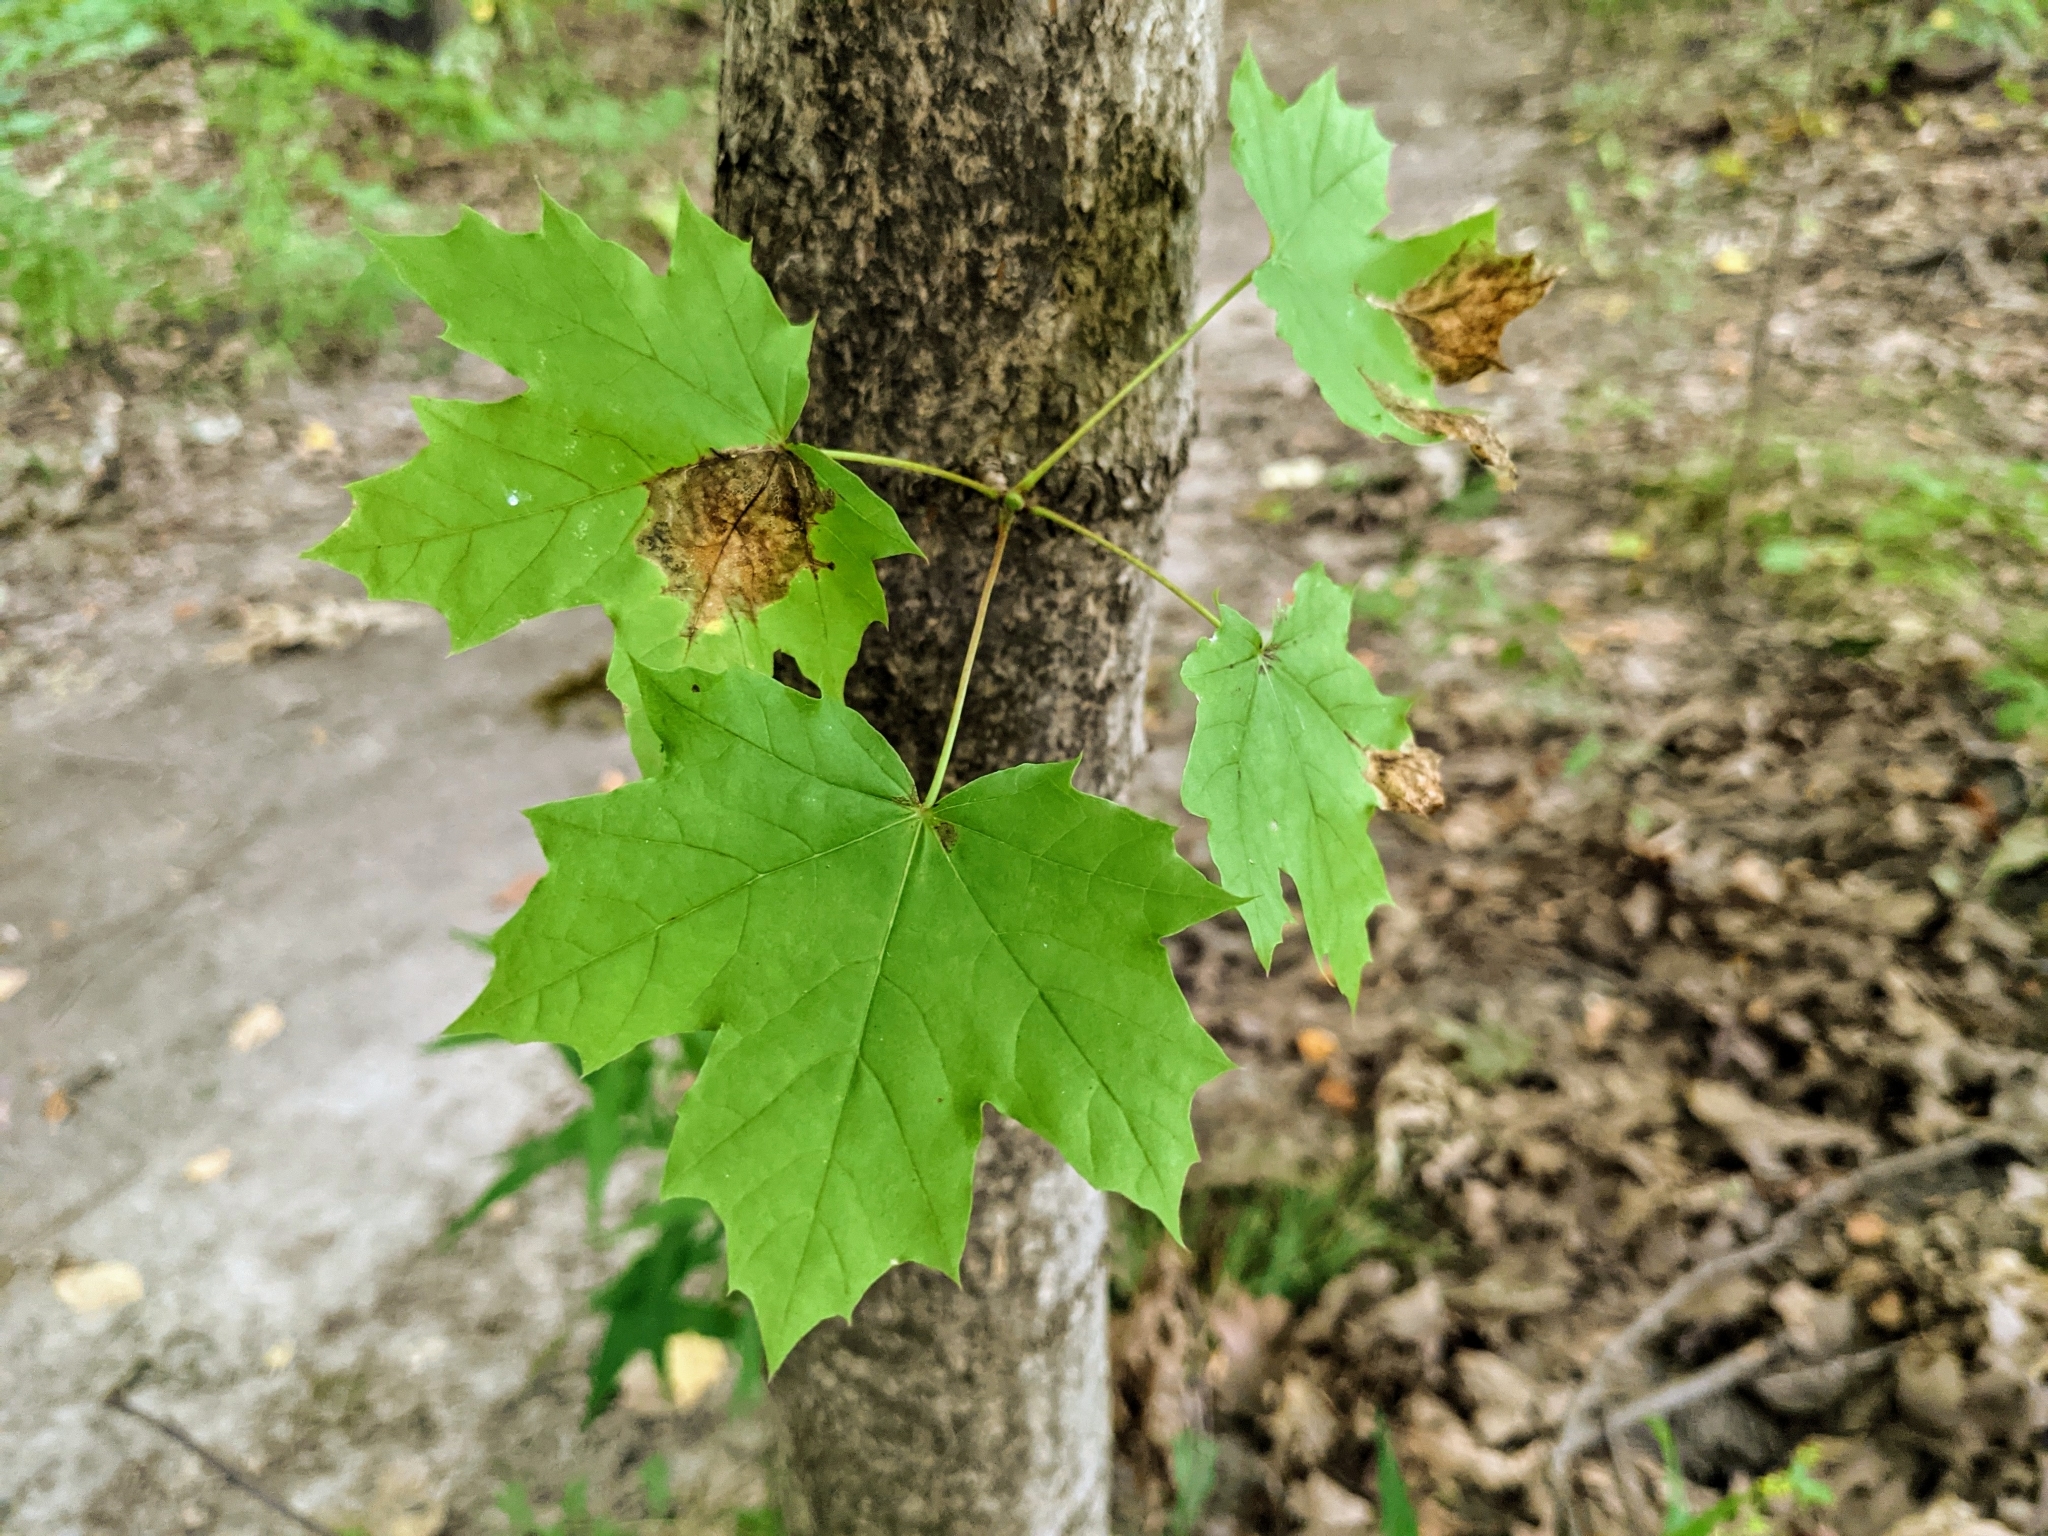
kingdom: Plantae
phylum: Tracheophyta
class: Magnoliopsida
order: Sapindales
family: Sapindaceae
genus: Acer
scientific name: Acer platanoides
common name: Norway maple
